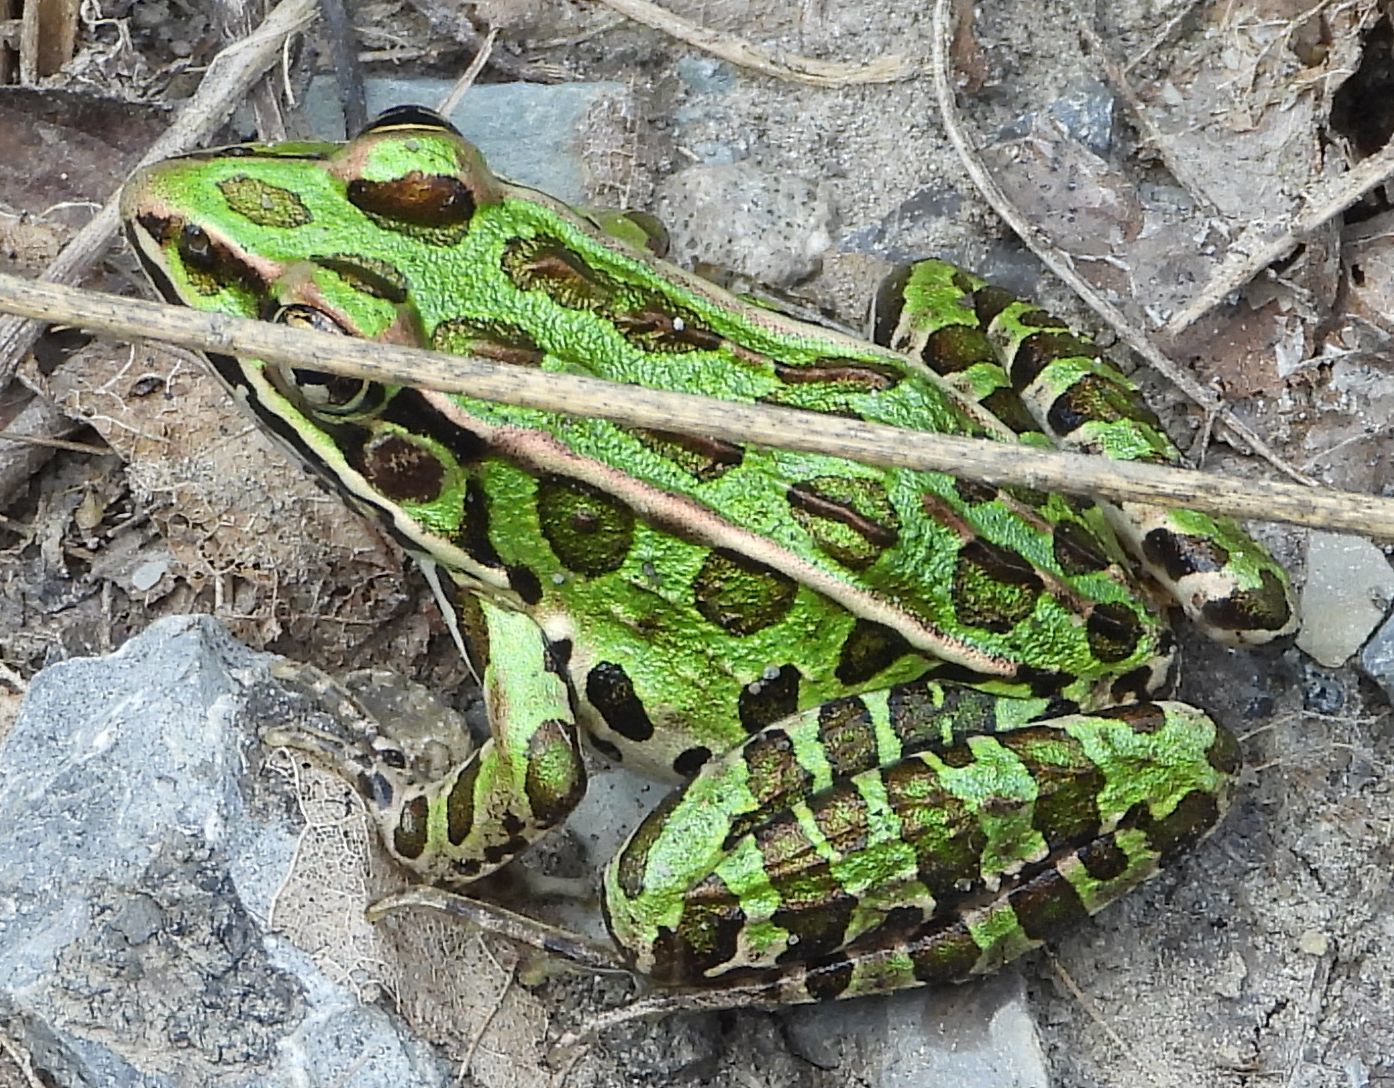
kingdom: Animalia
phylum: Chordata
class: Amphibia
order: Anura
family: Ranidae
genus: Lithobates
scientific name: Lithobates pipiens
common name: Northern leopard frog
